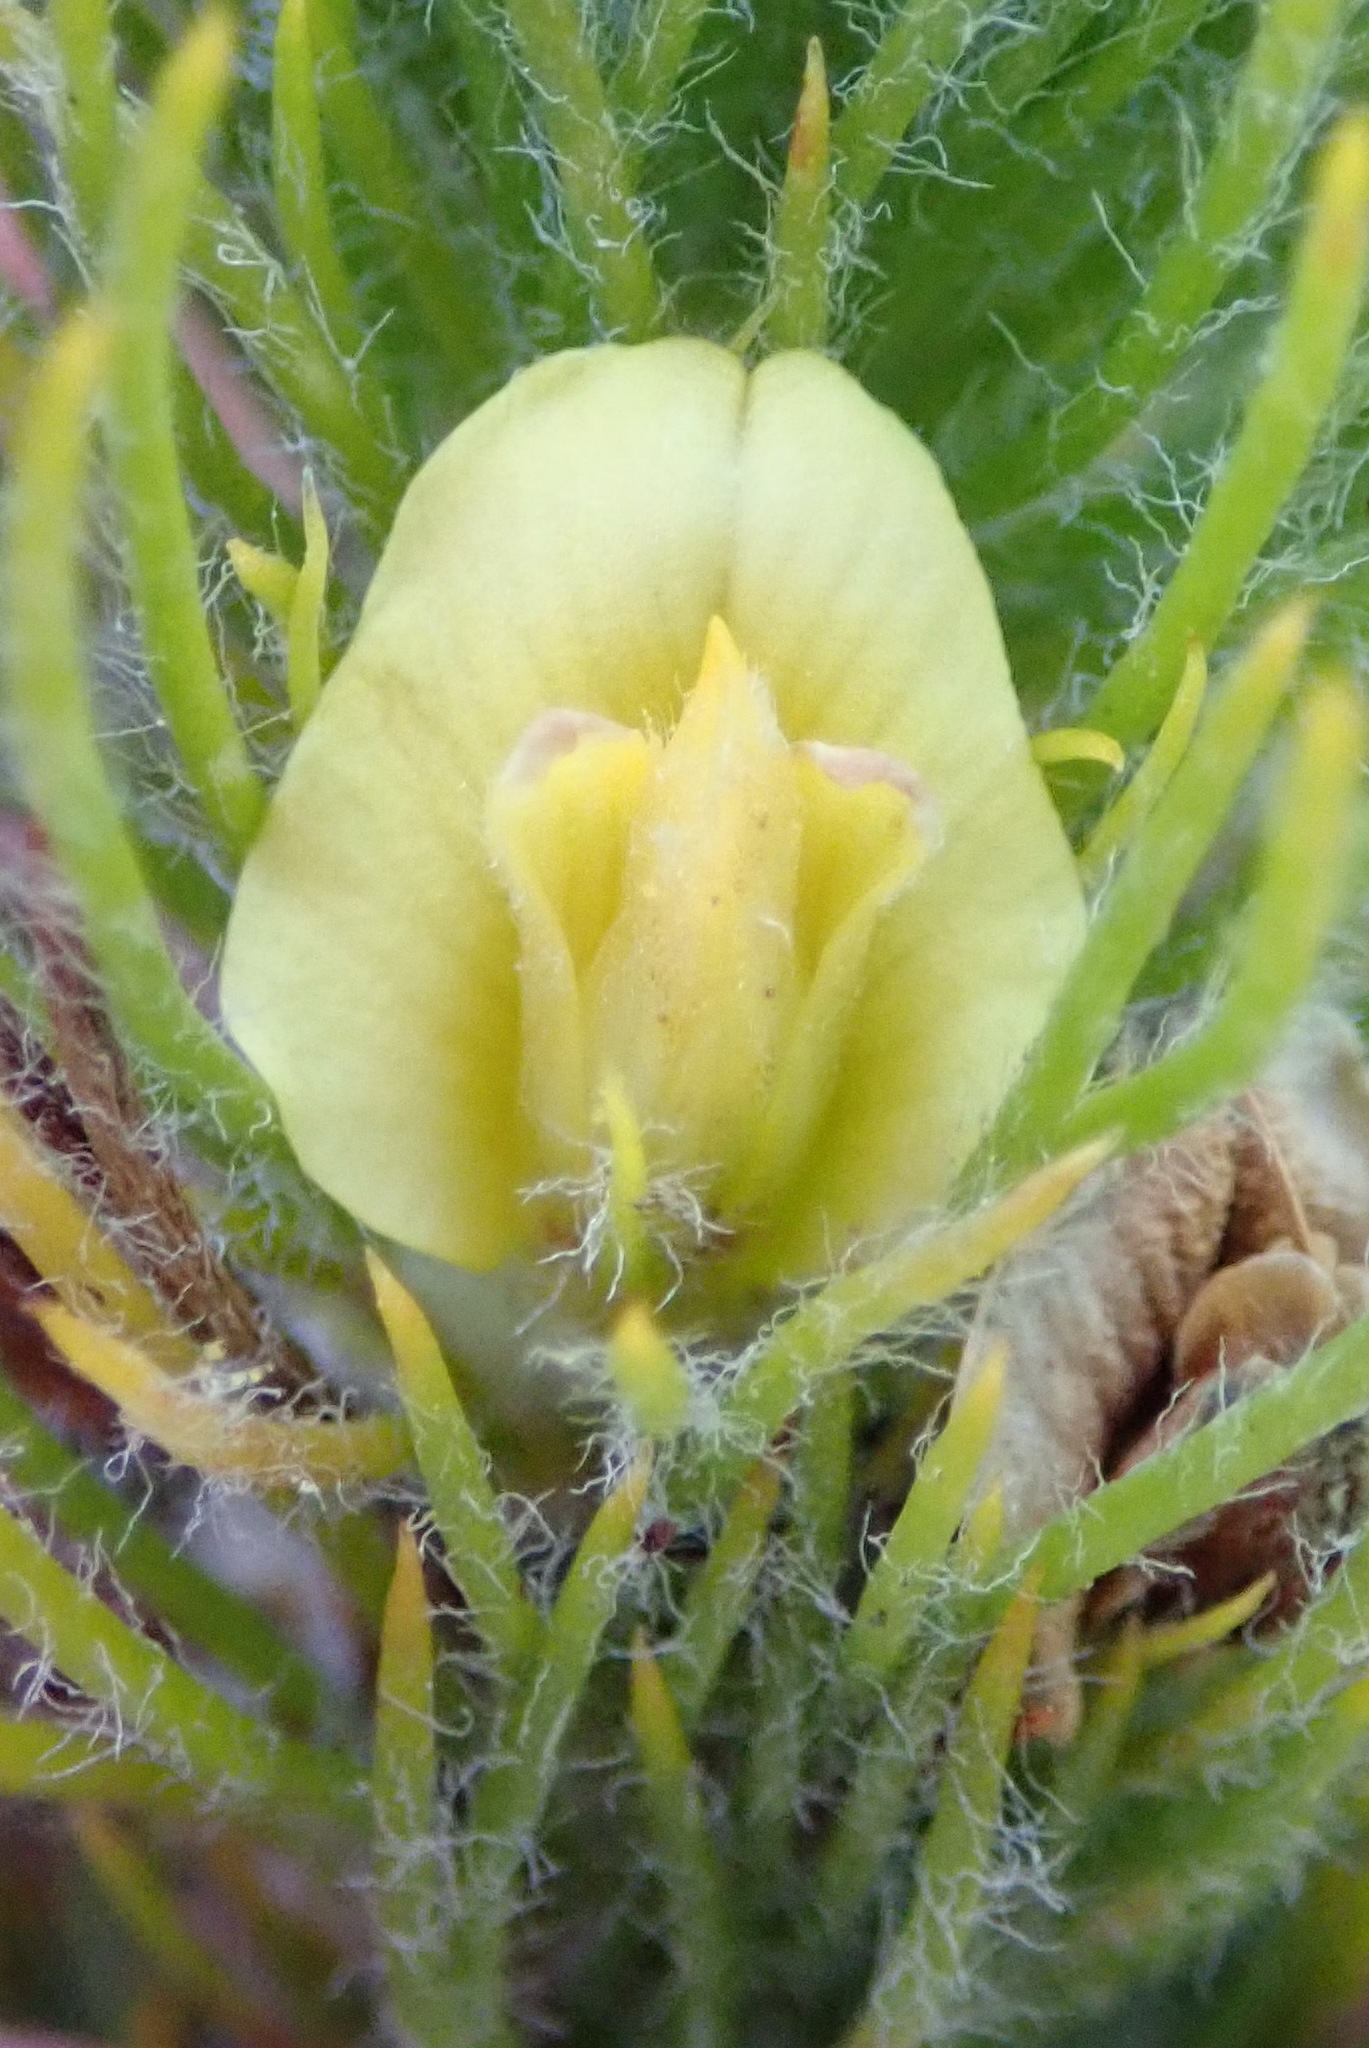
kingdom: Plantae
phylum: Tracheophyta
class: Magnoliopsida
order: Fabales
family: Fabaceae
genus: Aspalathus
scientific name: Aspalathus alopecurus
